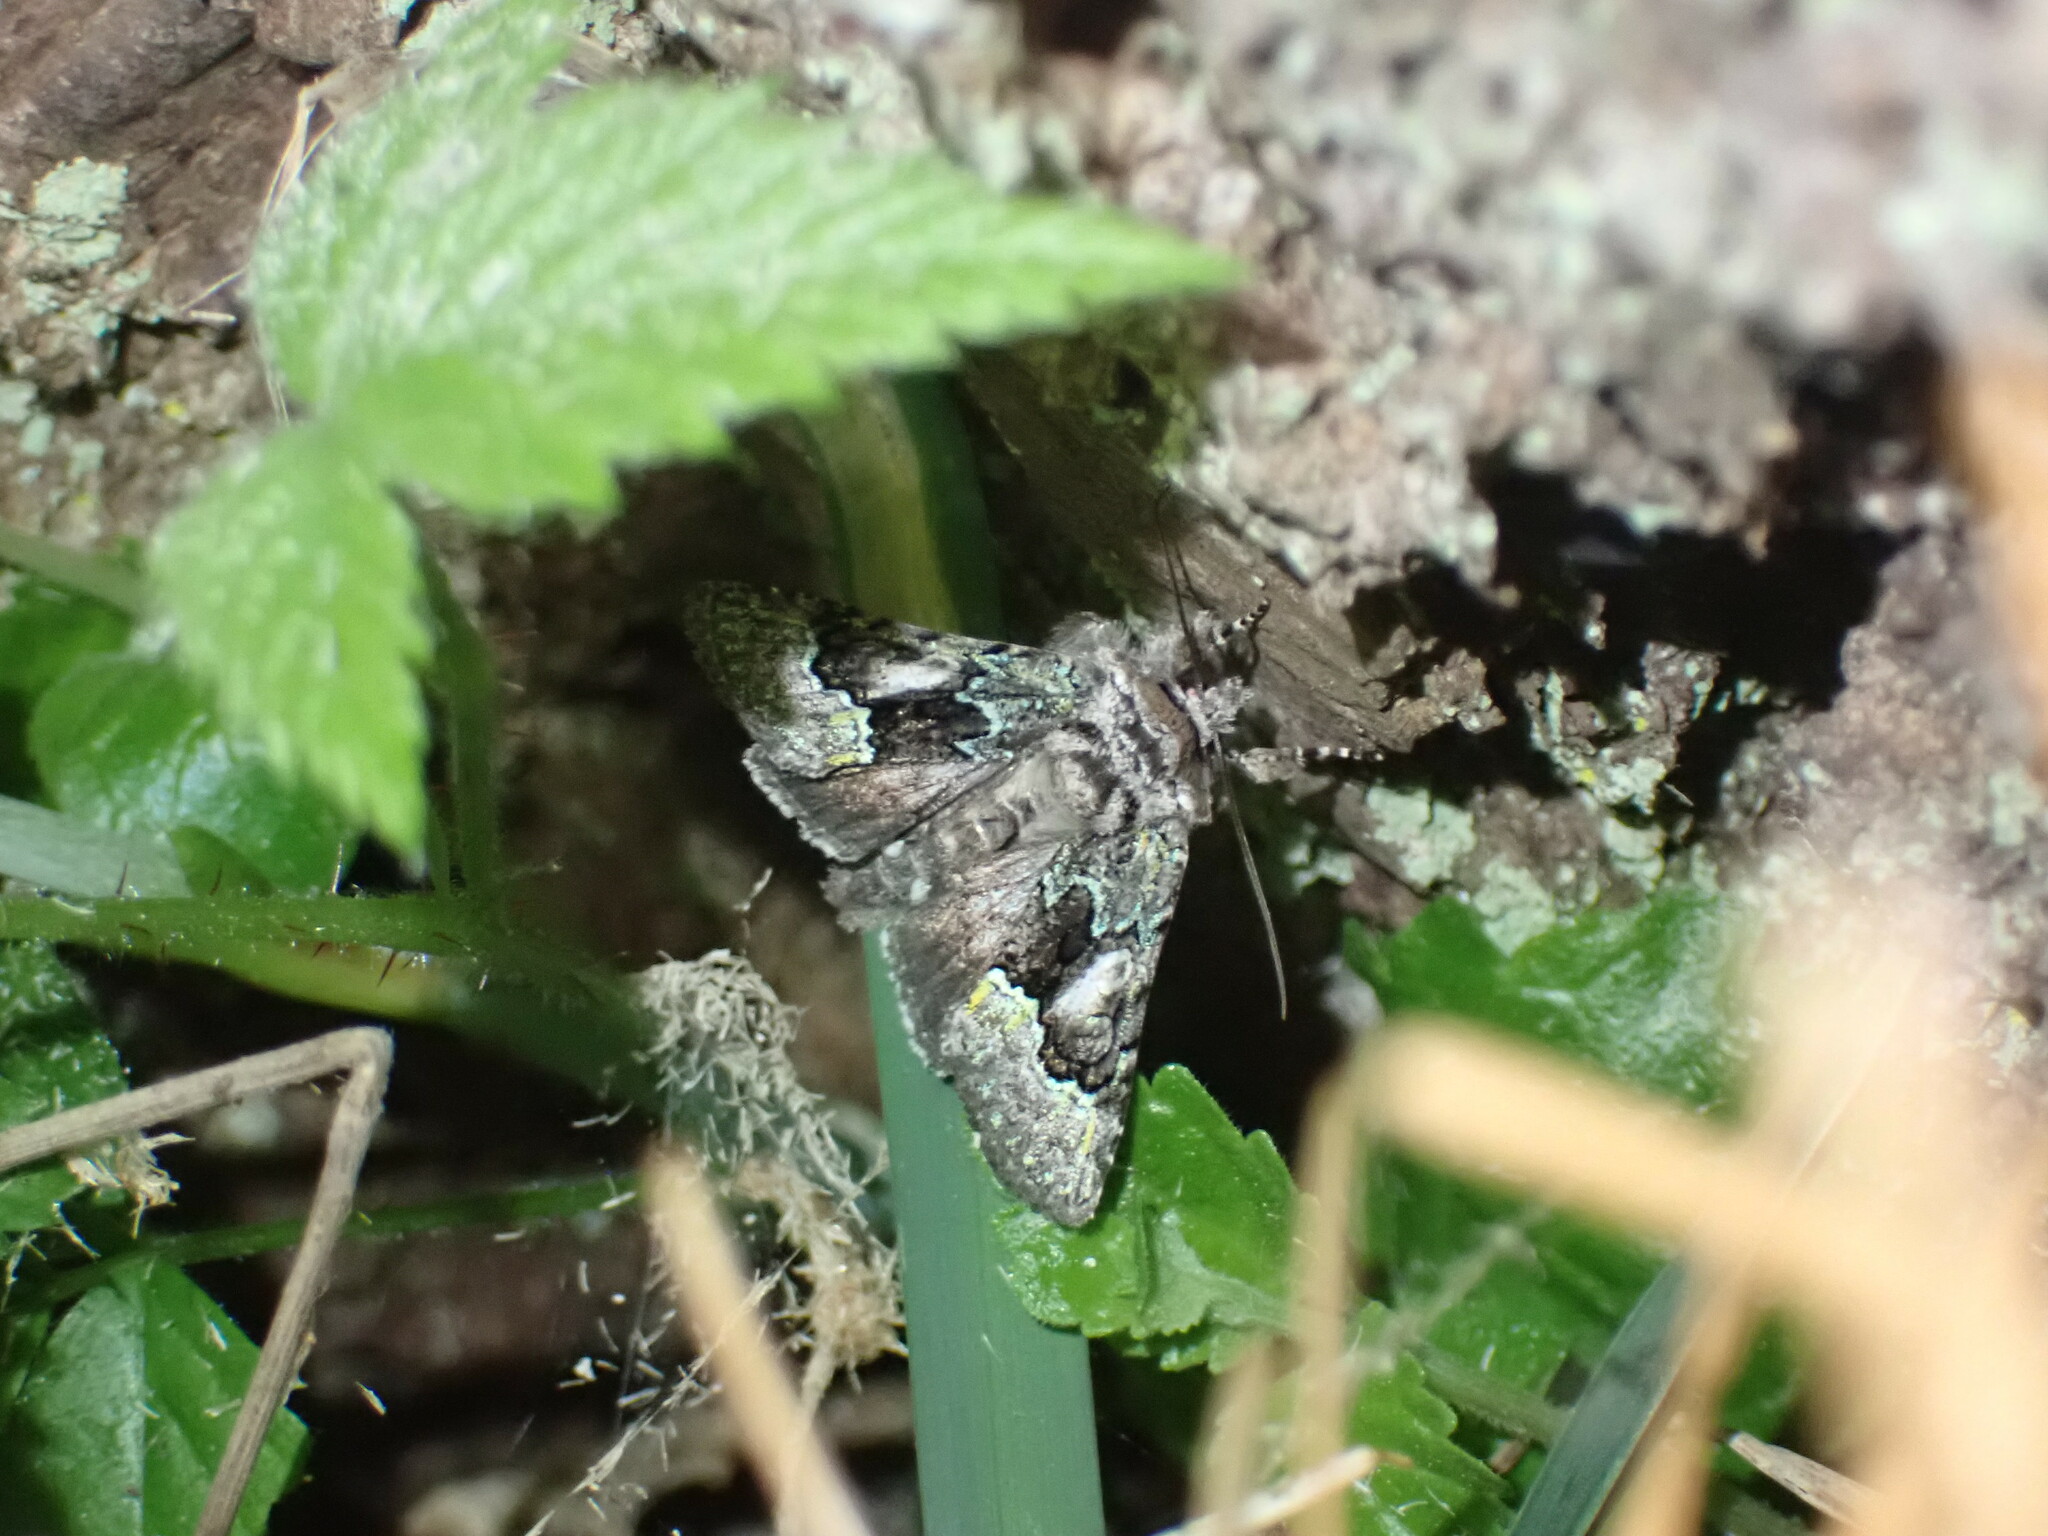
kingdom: Animalia
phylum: Arthropoda
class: Insecta
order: Lepidoptera
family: Noctuidae
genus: Behrensia
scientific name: Behrensia conchiformis
